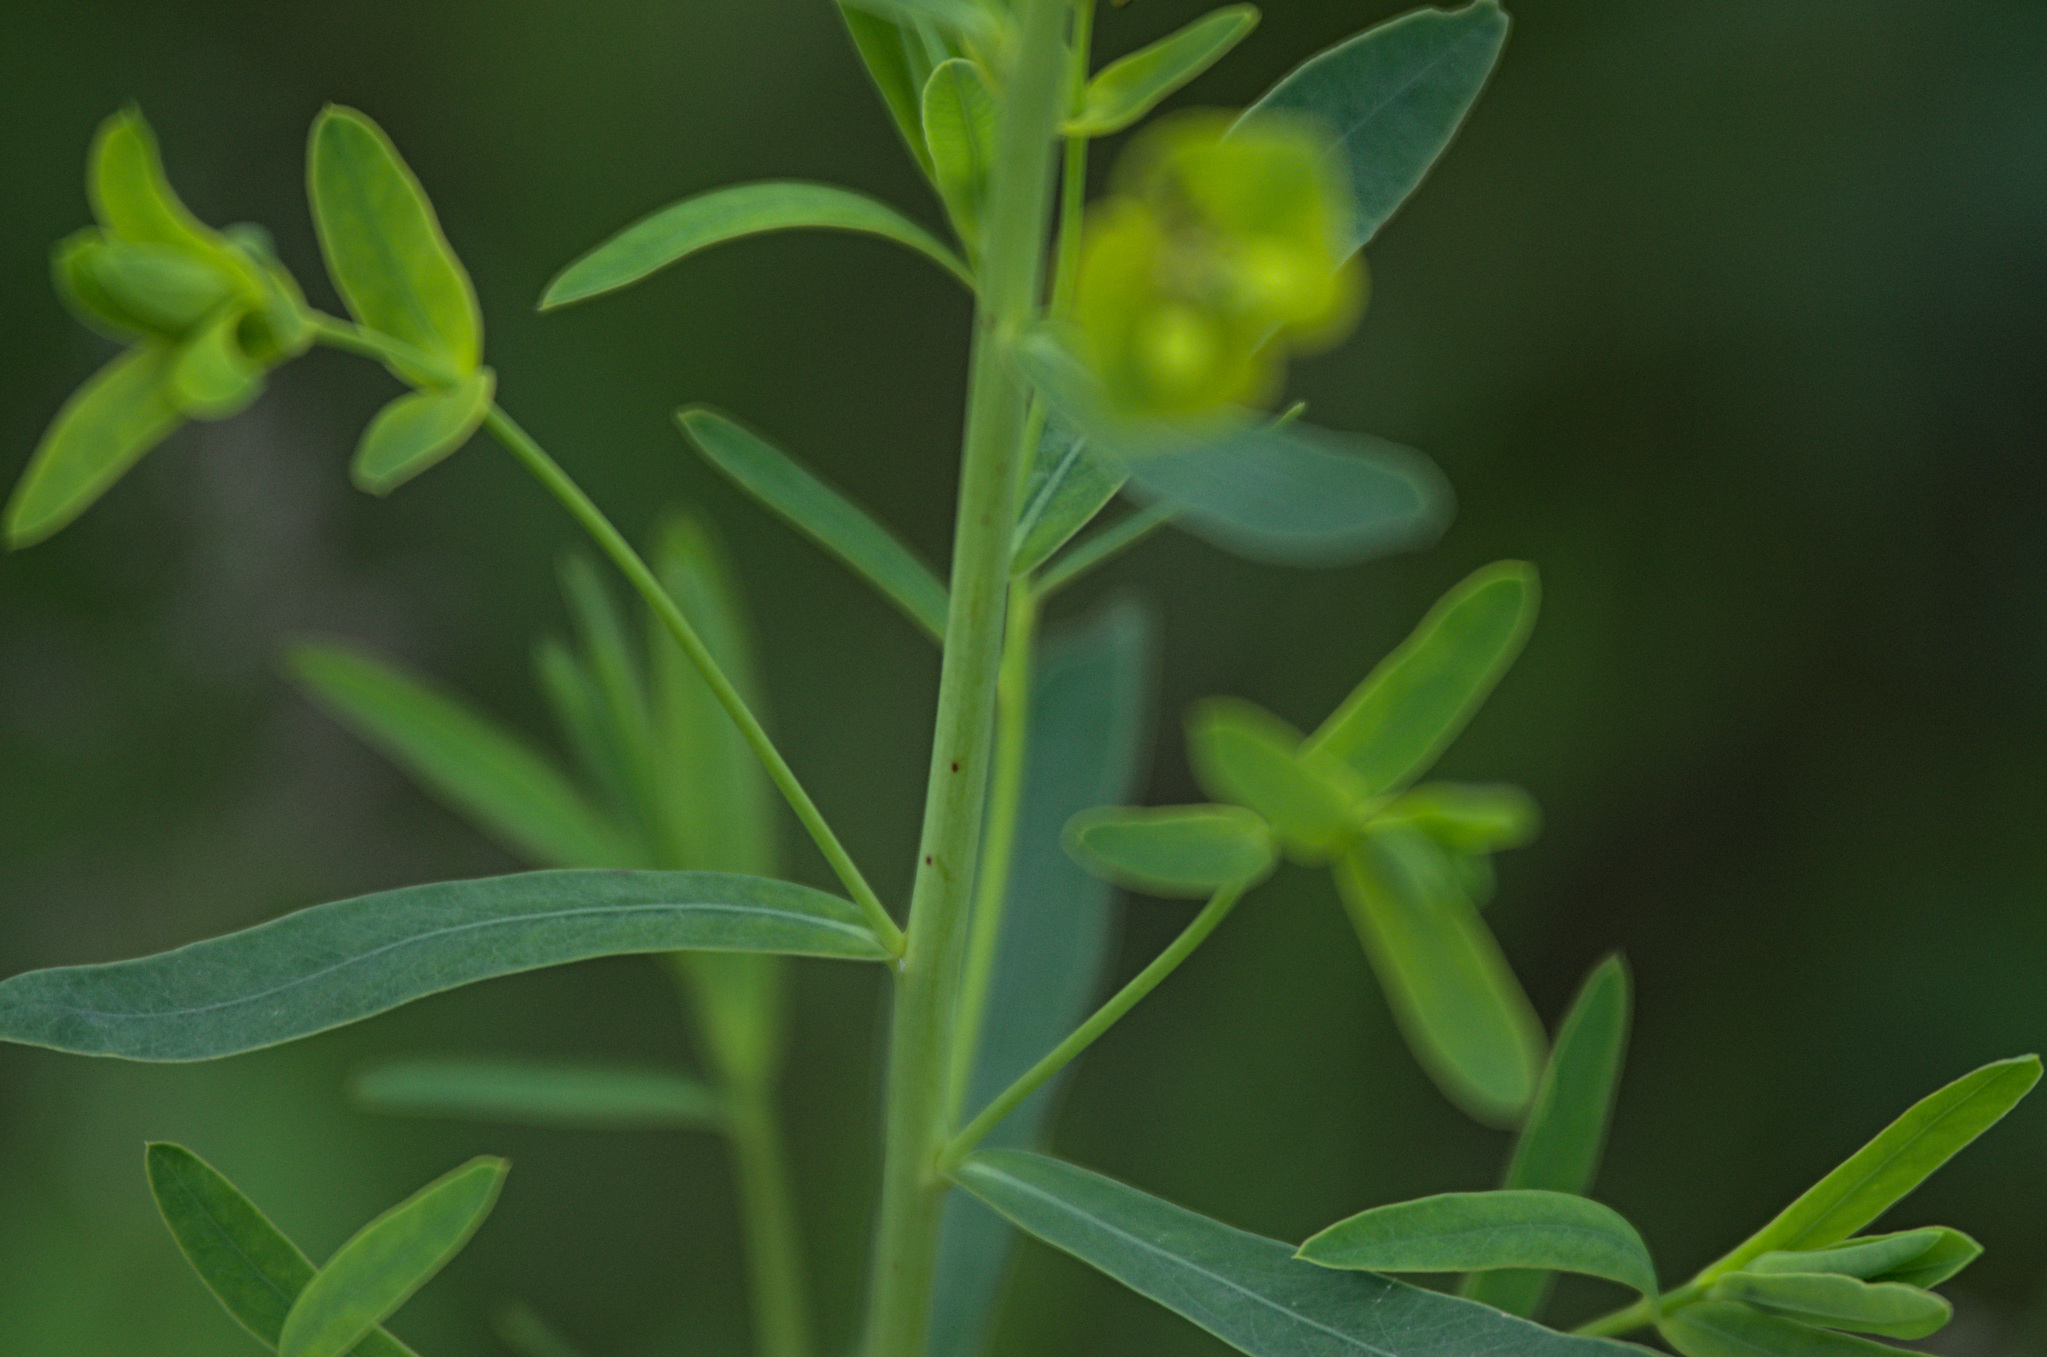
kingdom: Plantae
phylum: Tracheophyta
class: Magnoliopsida
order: Malpighiales
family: Euphorbiaceae
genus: Euphorbia
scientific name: Euphorbia virgata
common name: Leafy spurge
